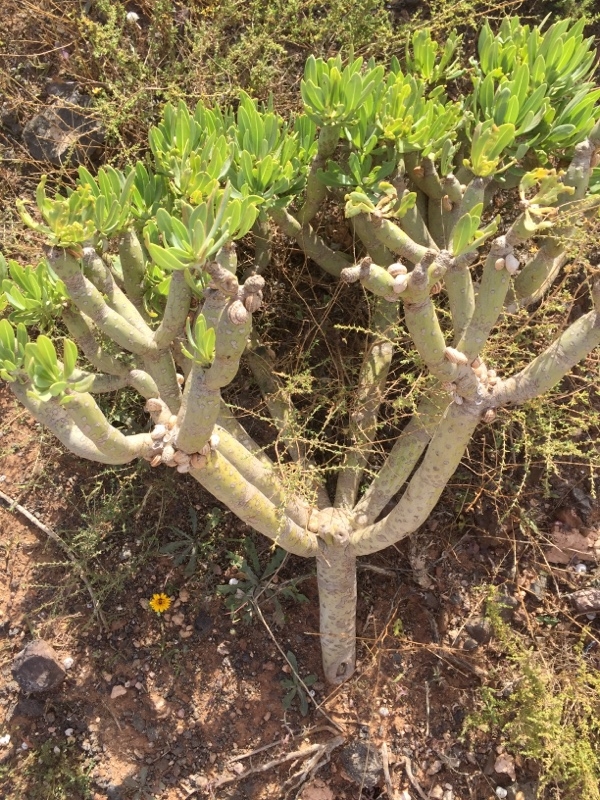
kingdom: Plantae
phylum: Tracheophyta
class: Magnoliopsida
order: Asterales
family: Asteraceae
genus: Kleinia
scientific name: Kleinia neriifolia
